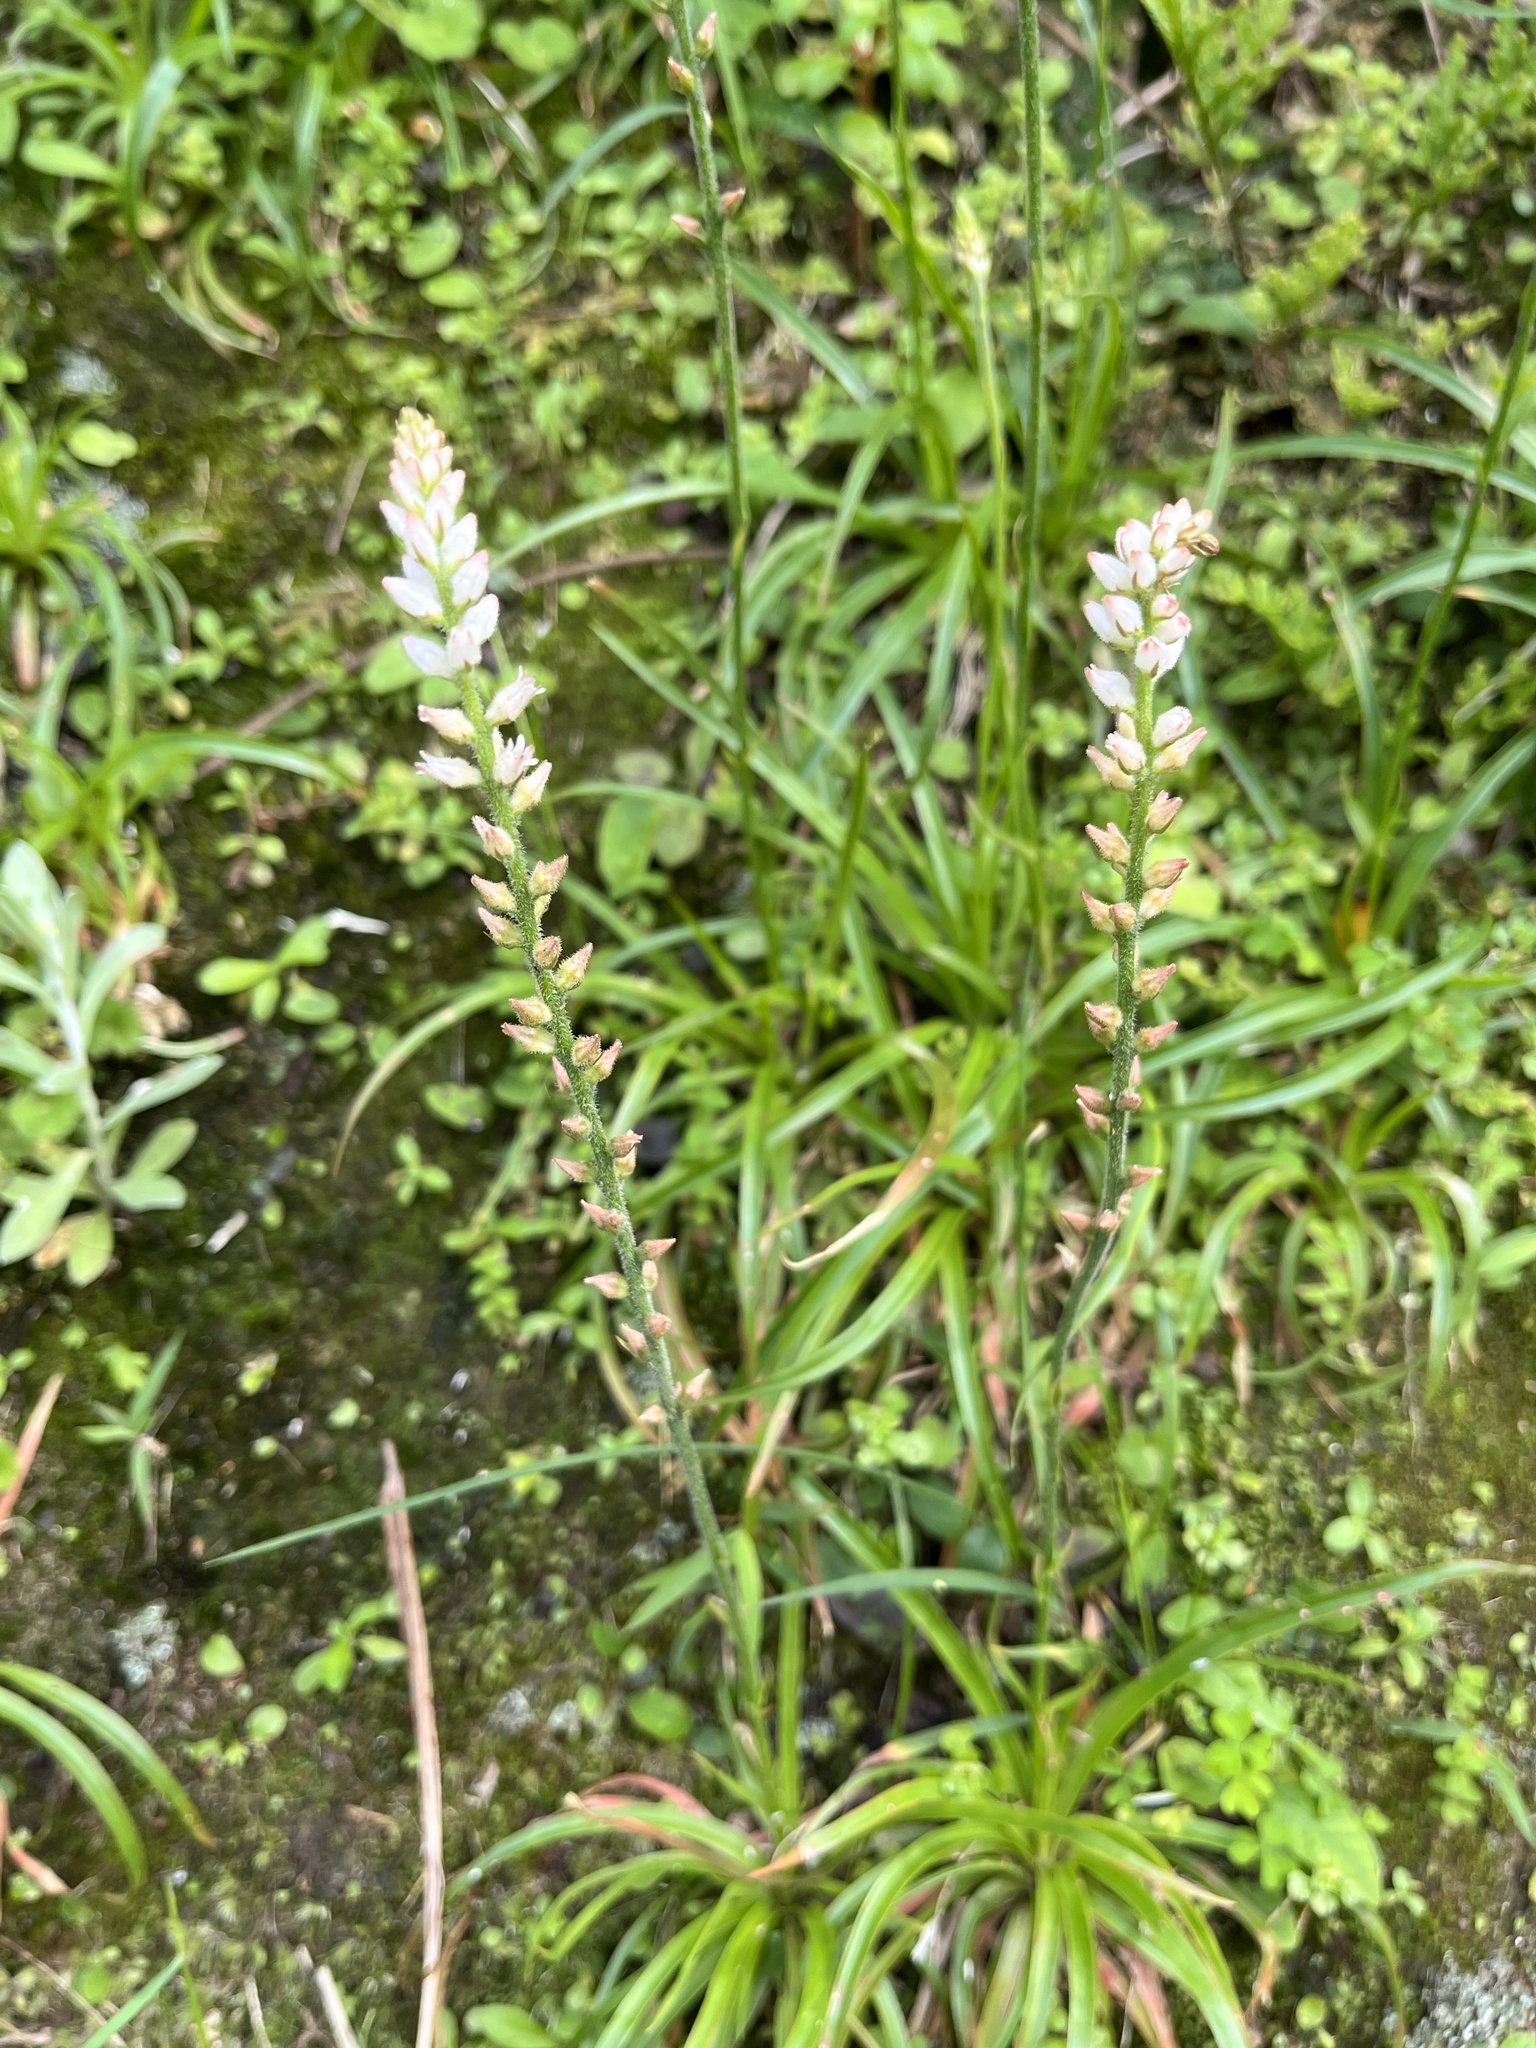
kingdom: Plantae
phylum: Tracheophyta
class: Liliopsida
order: Dioscoreales
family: Nartheciaceae
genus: Aletris
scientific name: Aletris spicata
